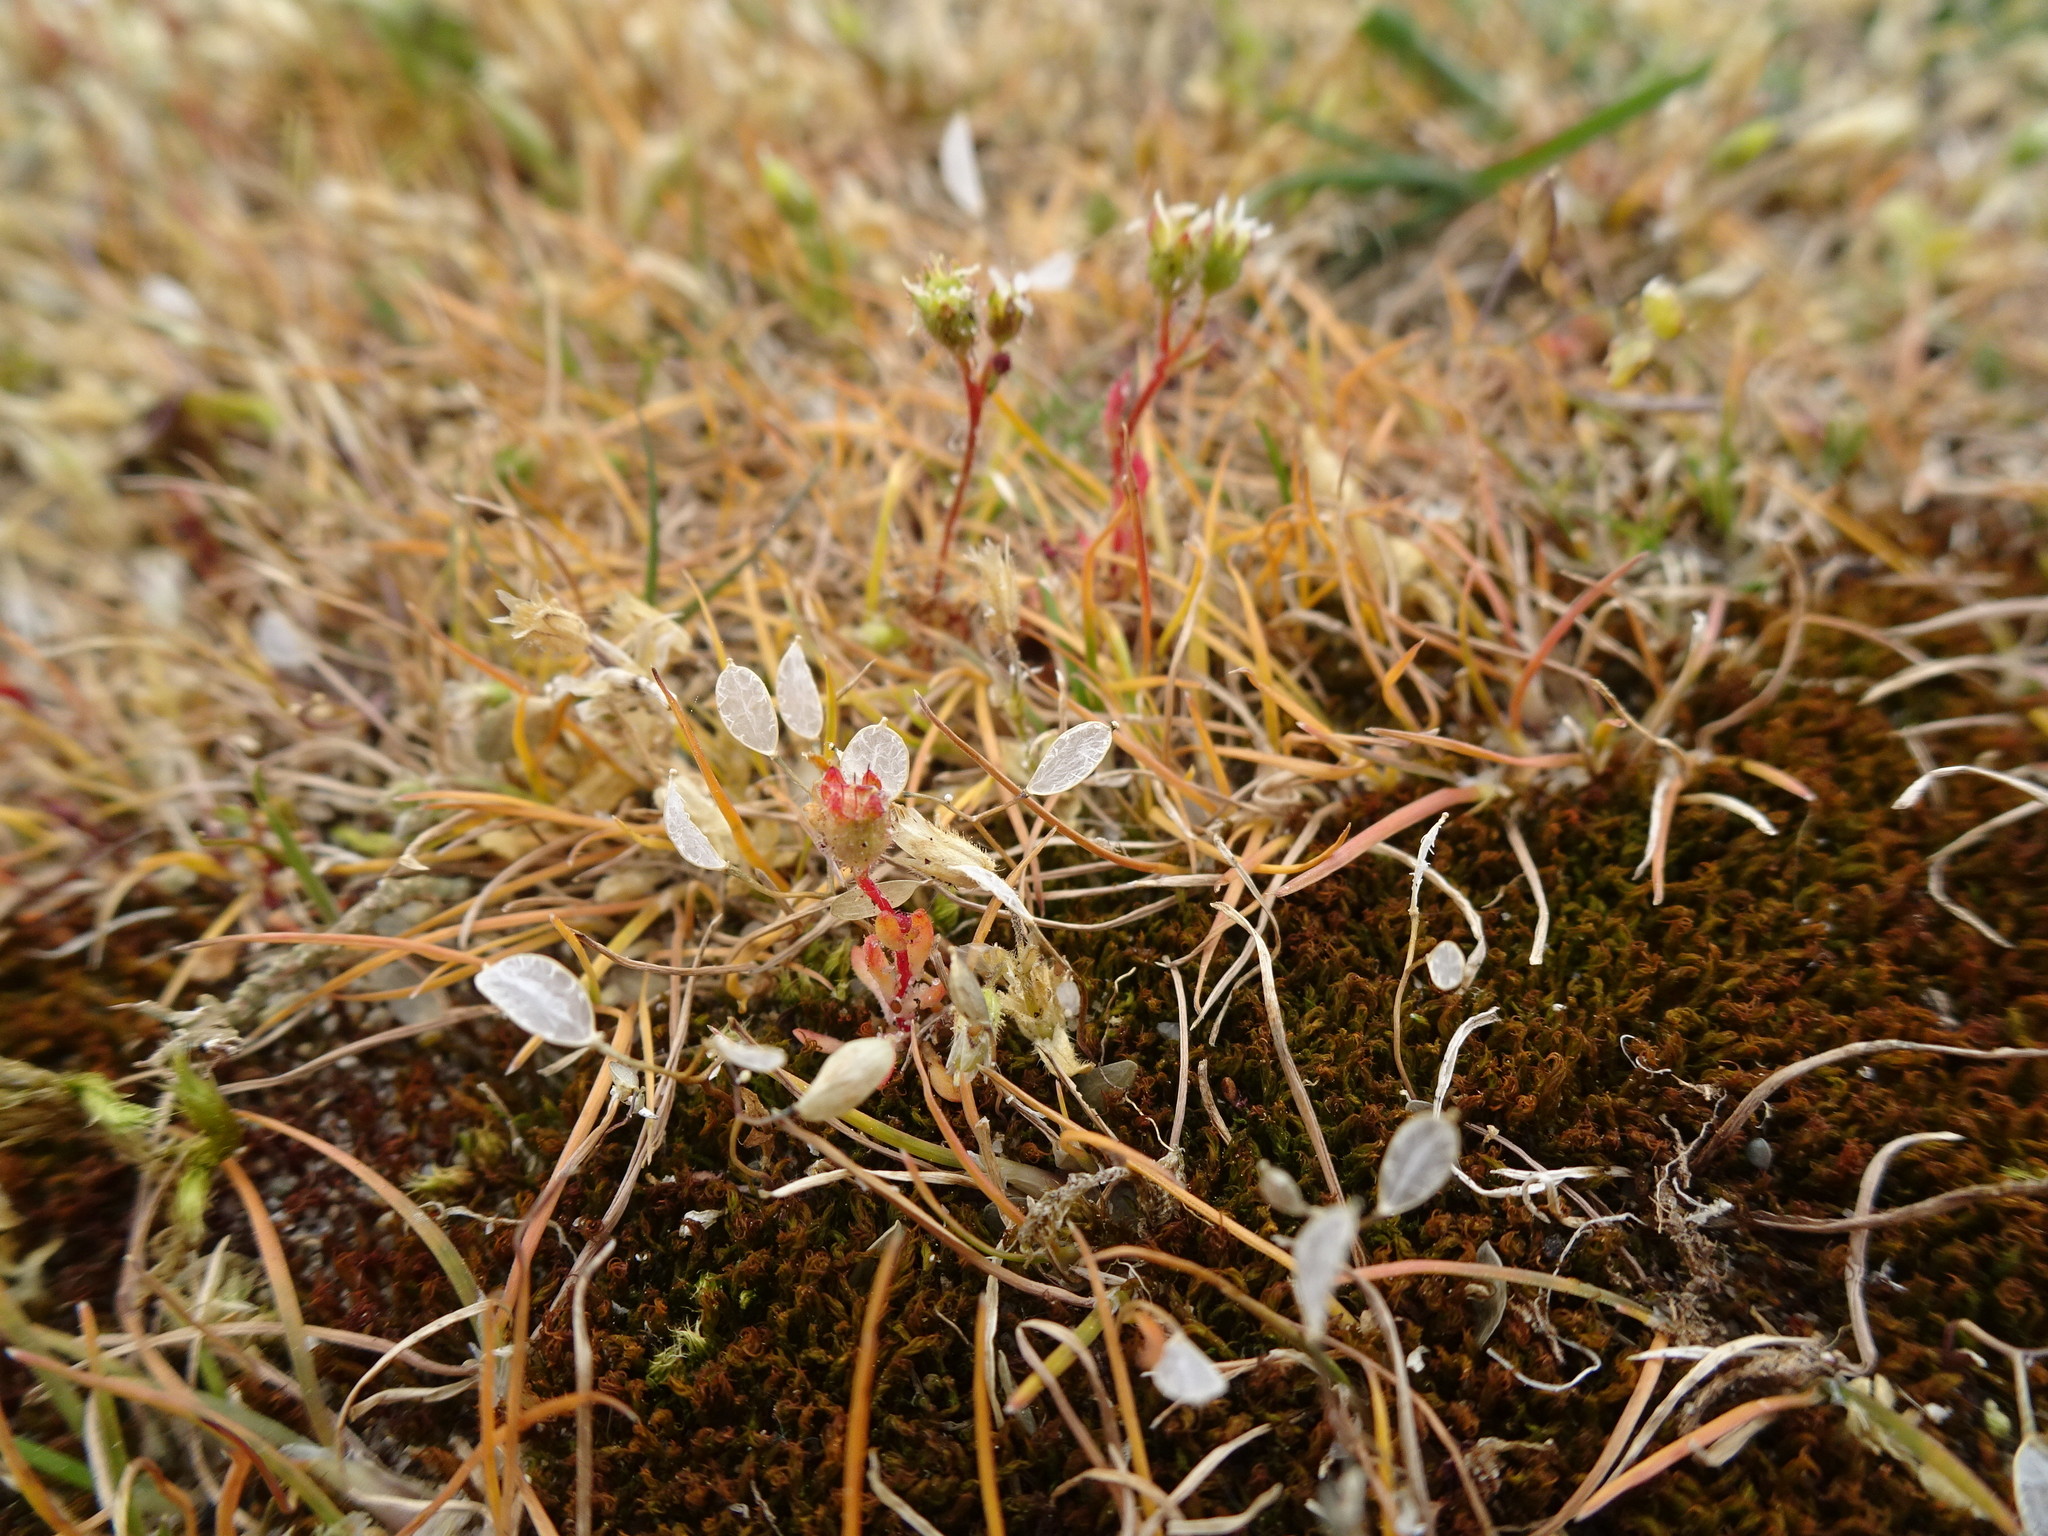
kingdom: Plantae
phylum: Tracheophyta
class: Magnoliopsida
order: Brassicales
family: Brassicaceae
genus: Draba
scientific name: Draba verna
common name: Spring draba
